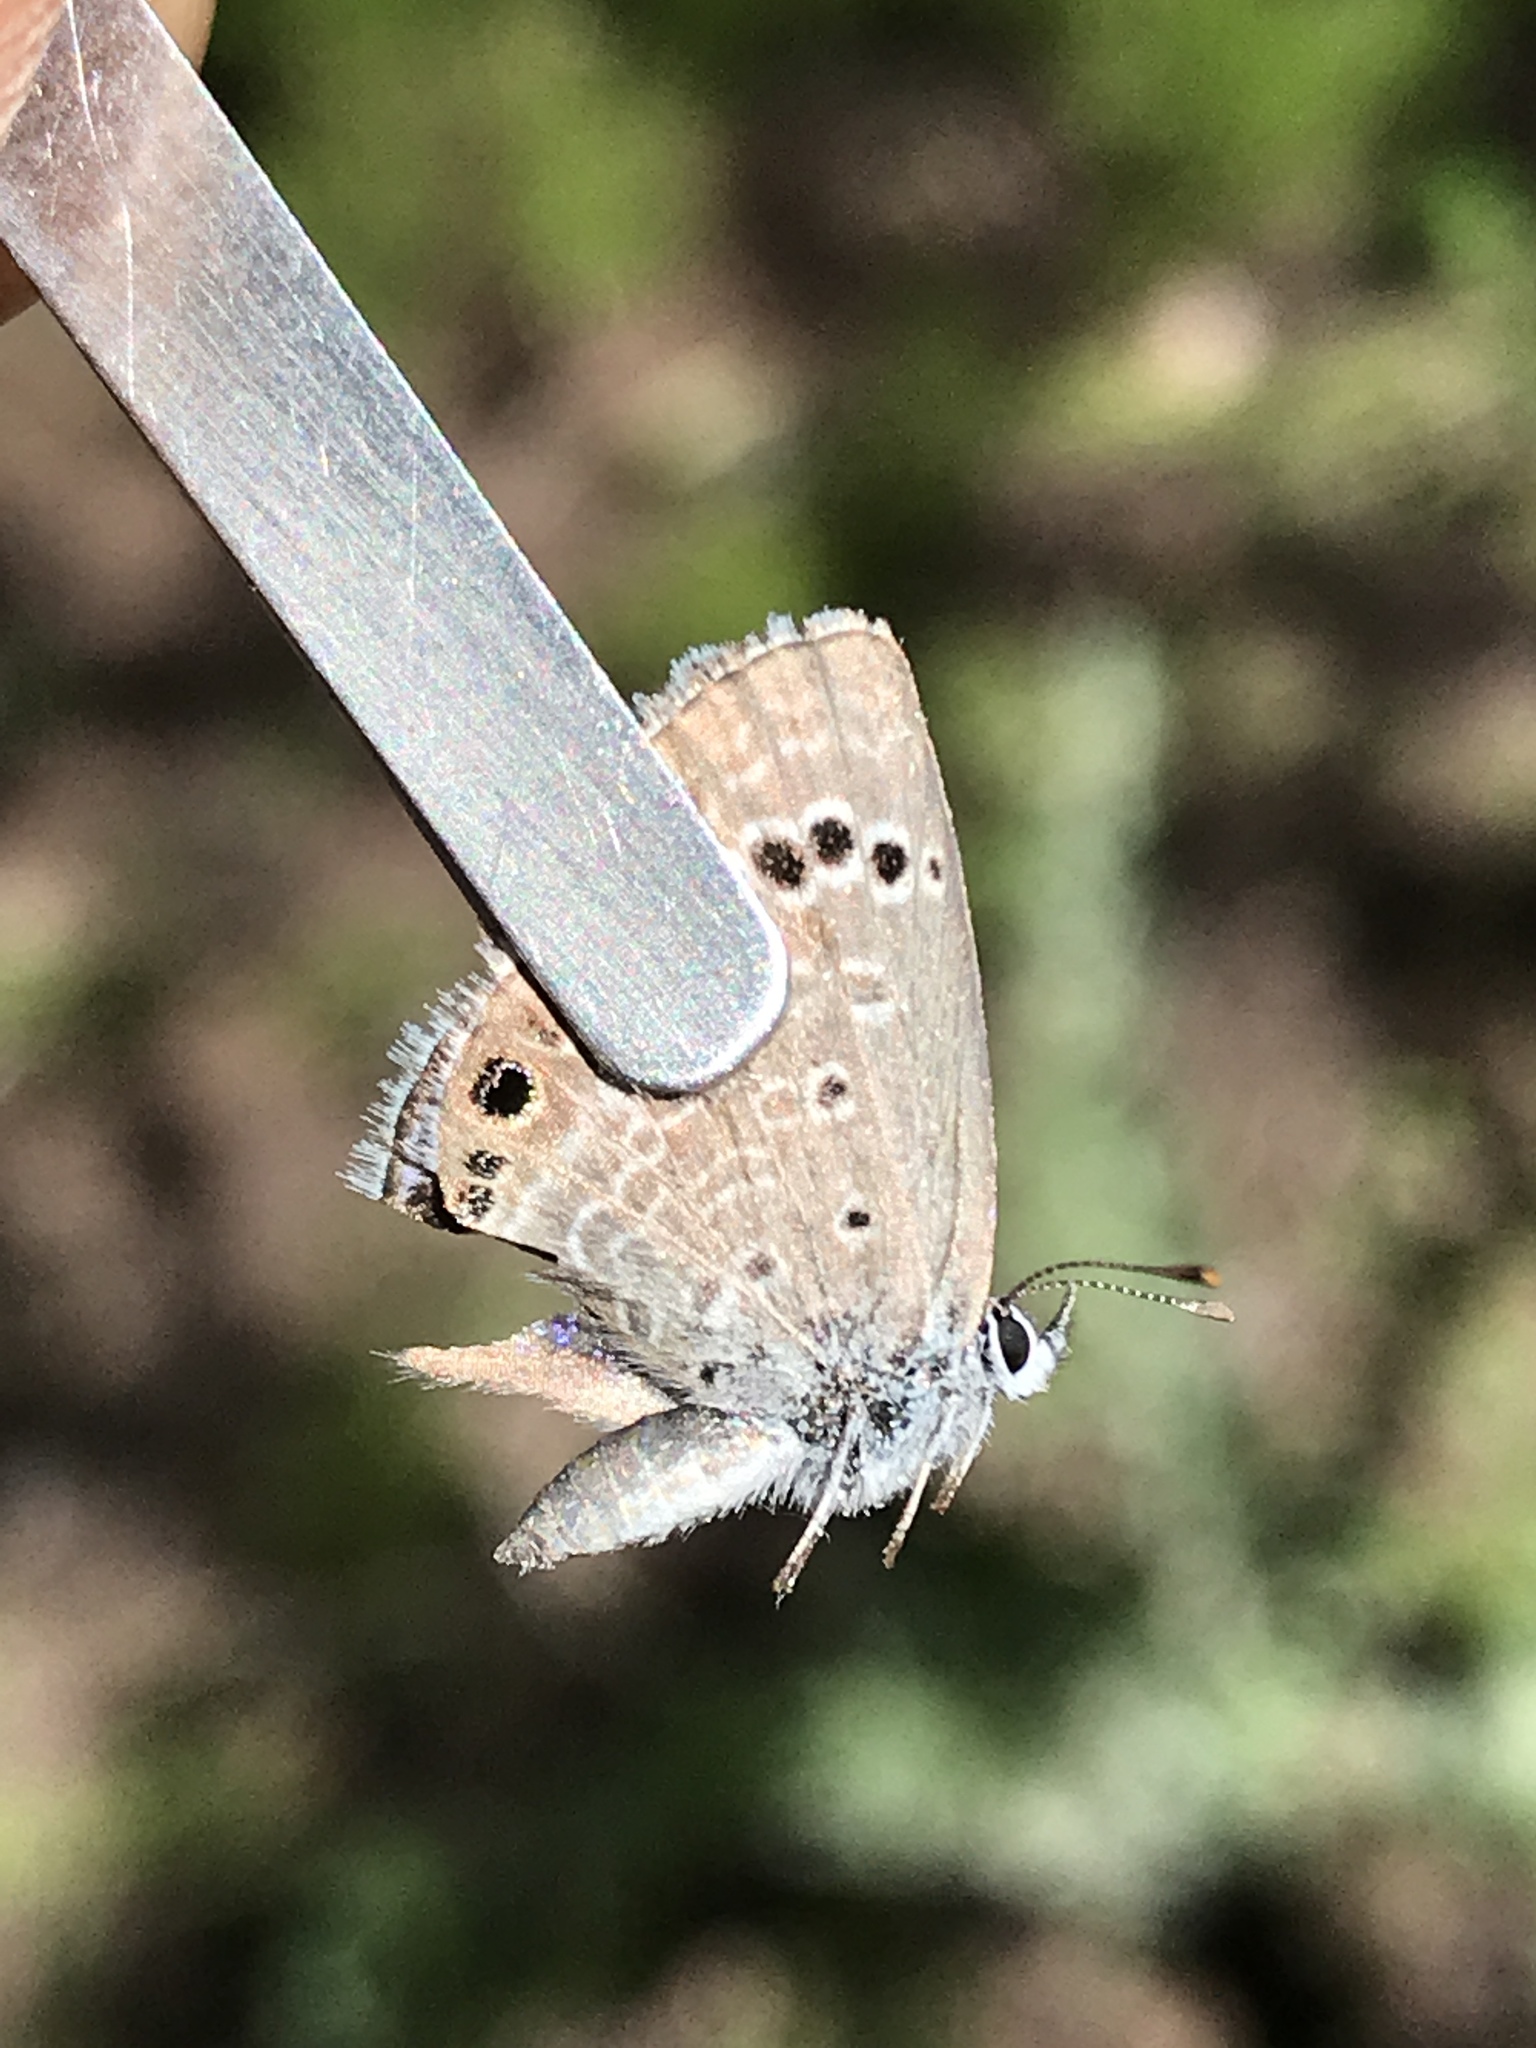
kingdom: Animalia
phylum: Arthropoda
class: Insecta
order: Lepidoptera
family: Lycaenidae
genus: Echinargus
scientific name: Echinargus isola
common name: Reakirt's blue
